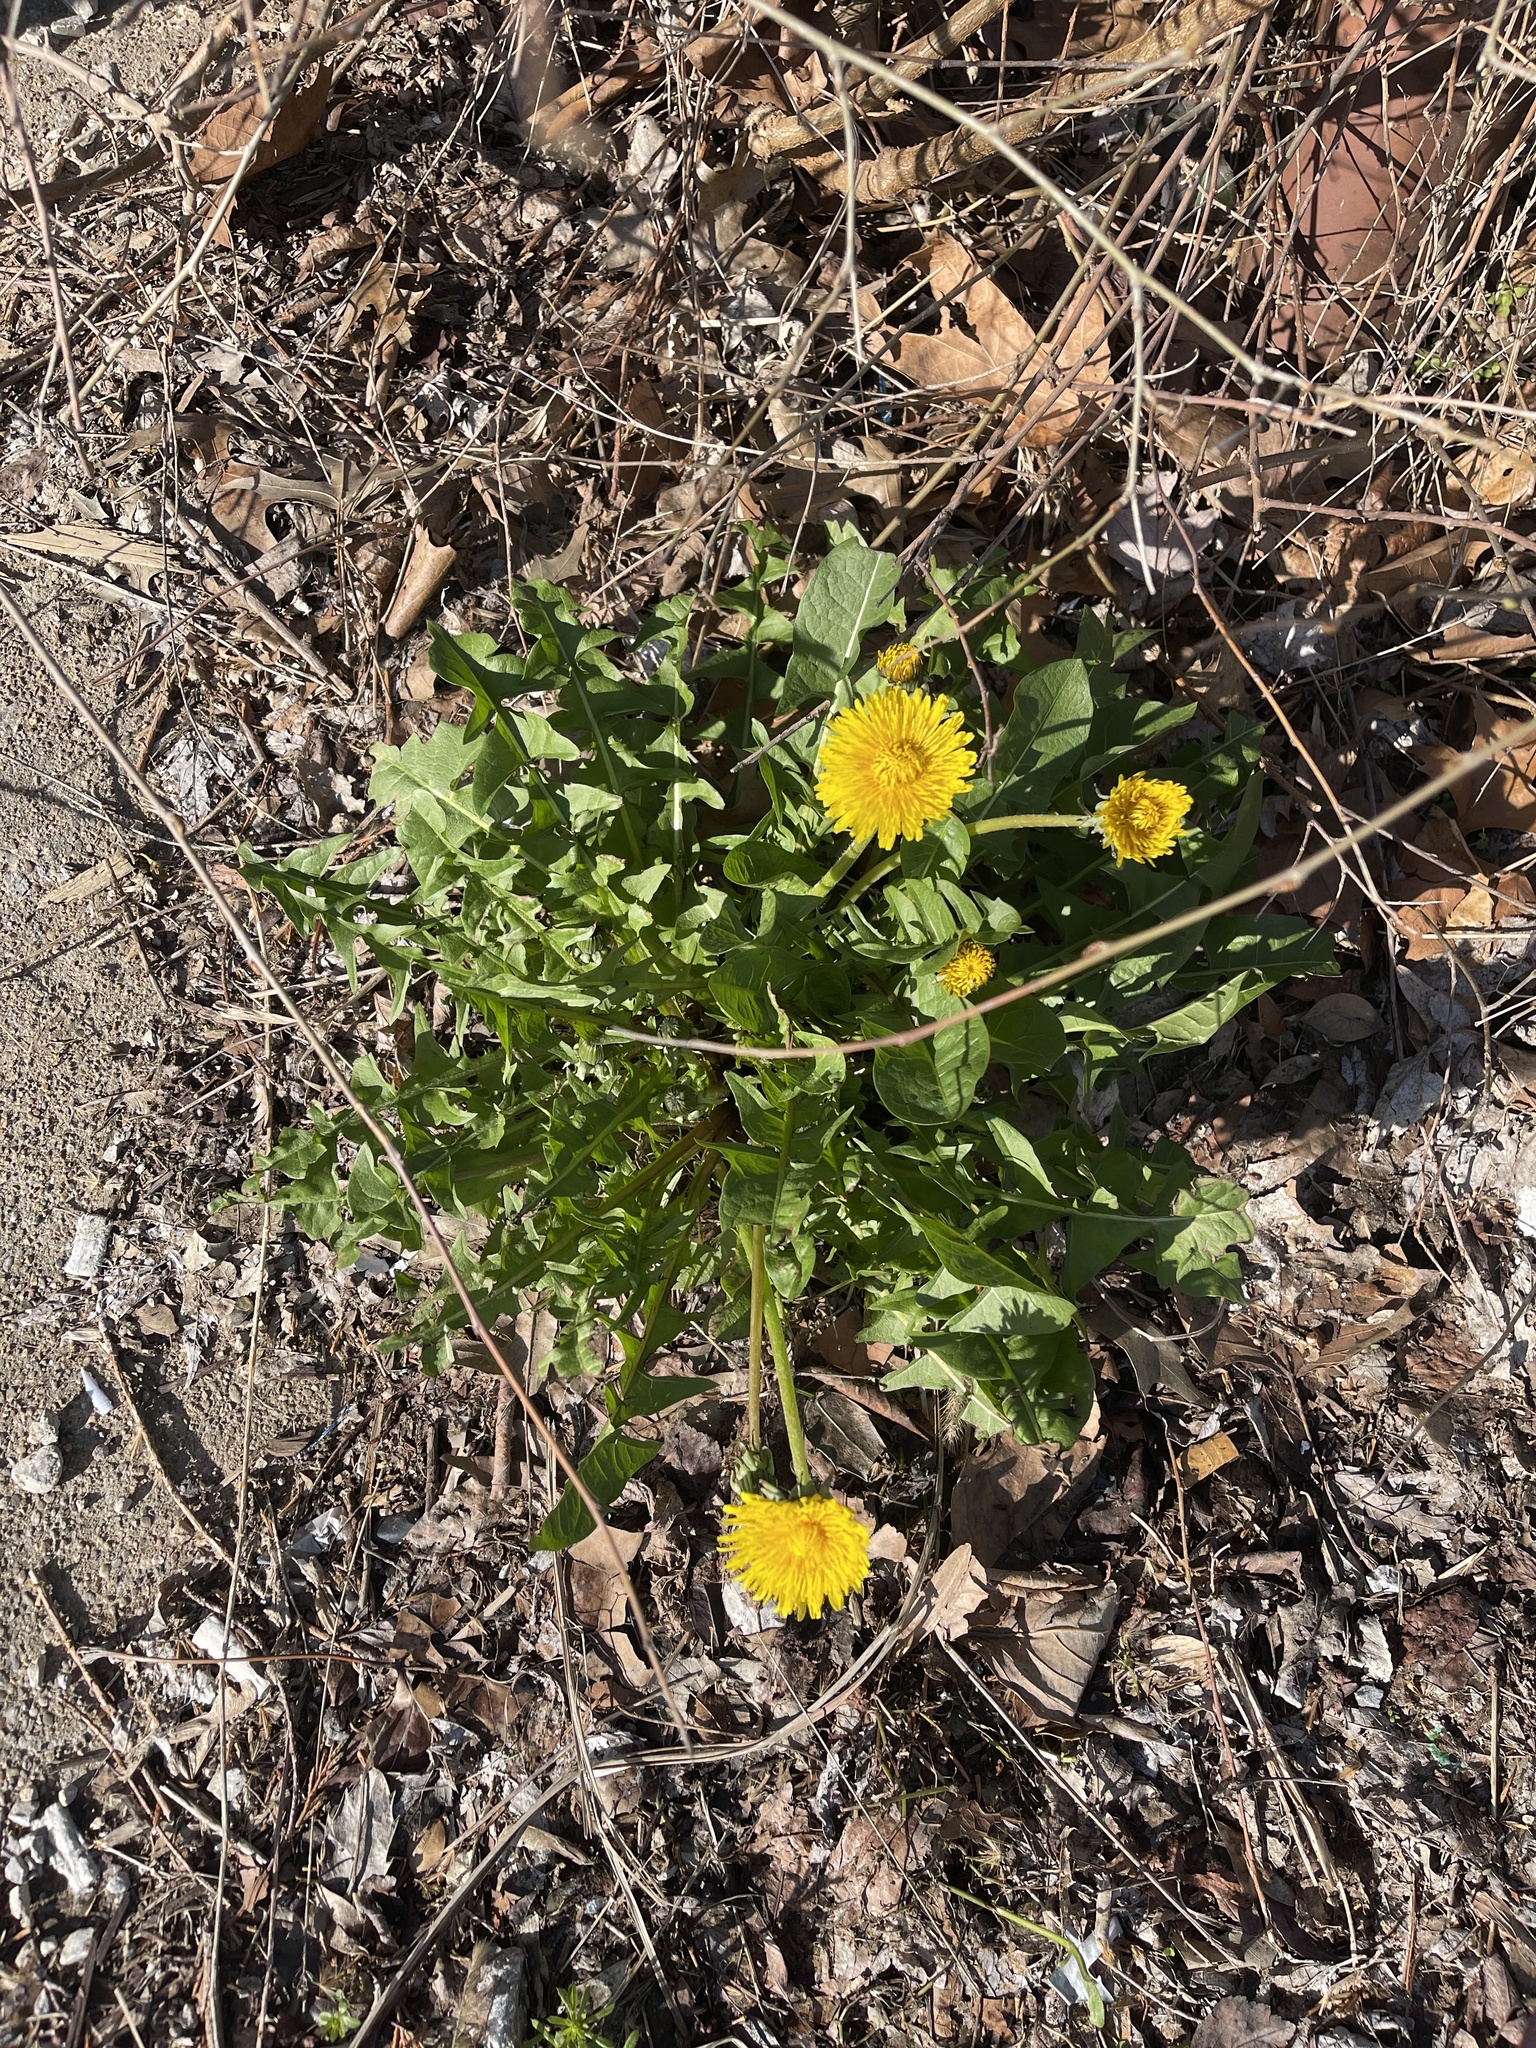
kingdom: Plantae
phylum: Tracheophyta
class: Magnoliopsida
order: Asterales
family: Asteraceae
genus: Taraxacum
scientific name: Taraxacum officinale
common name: Common dandelion
